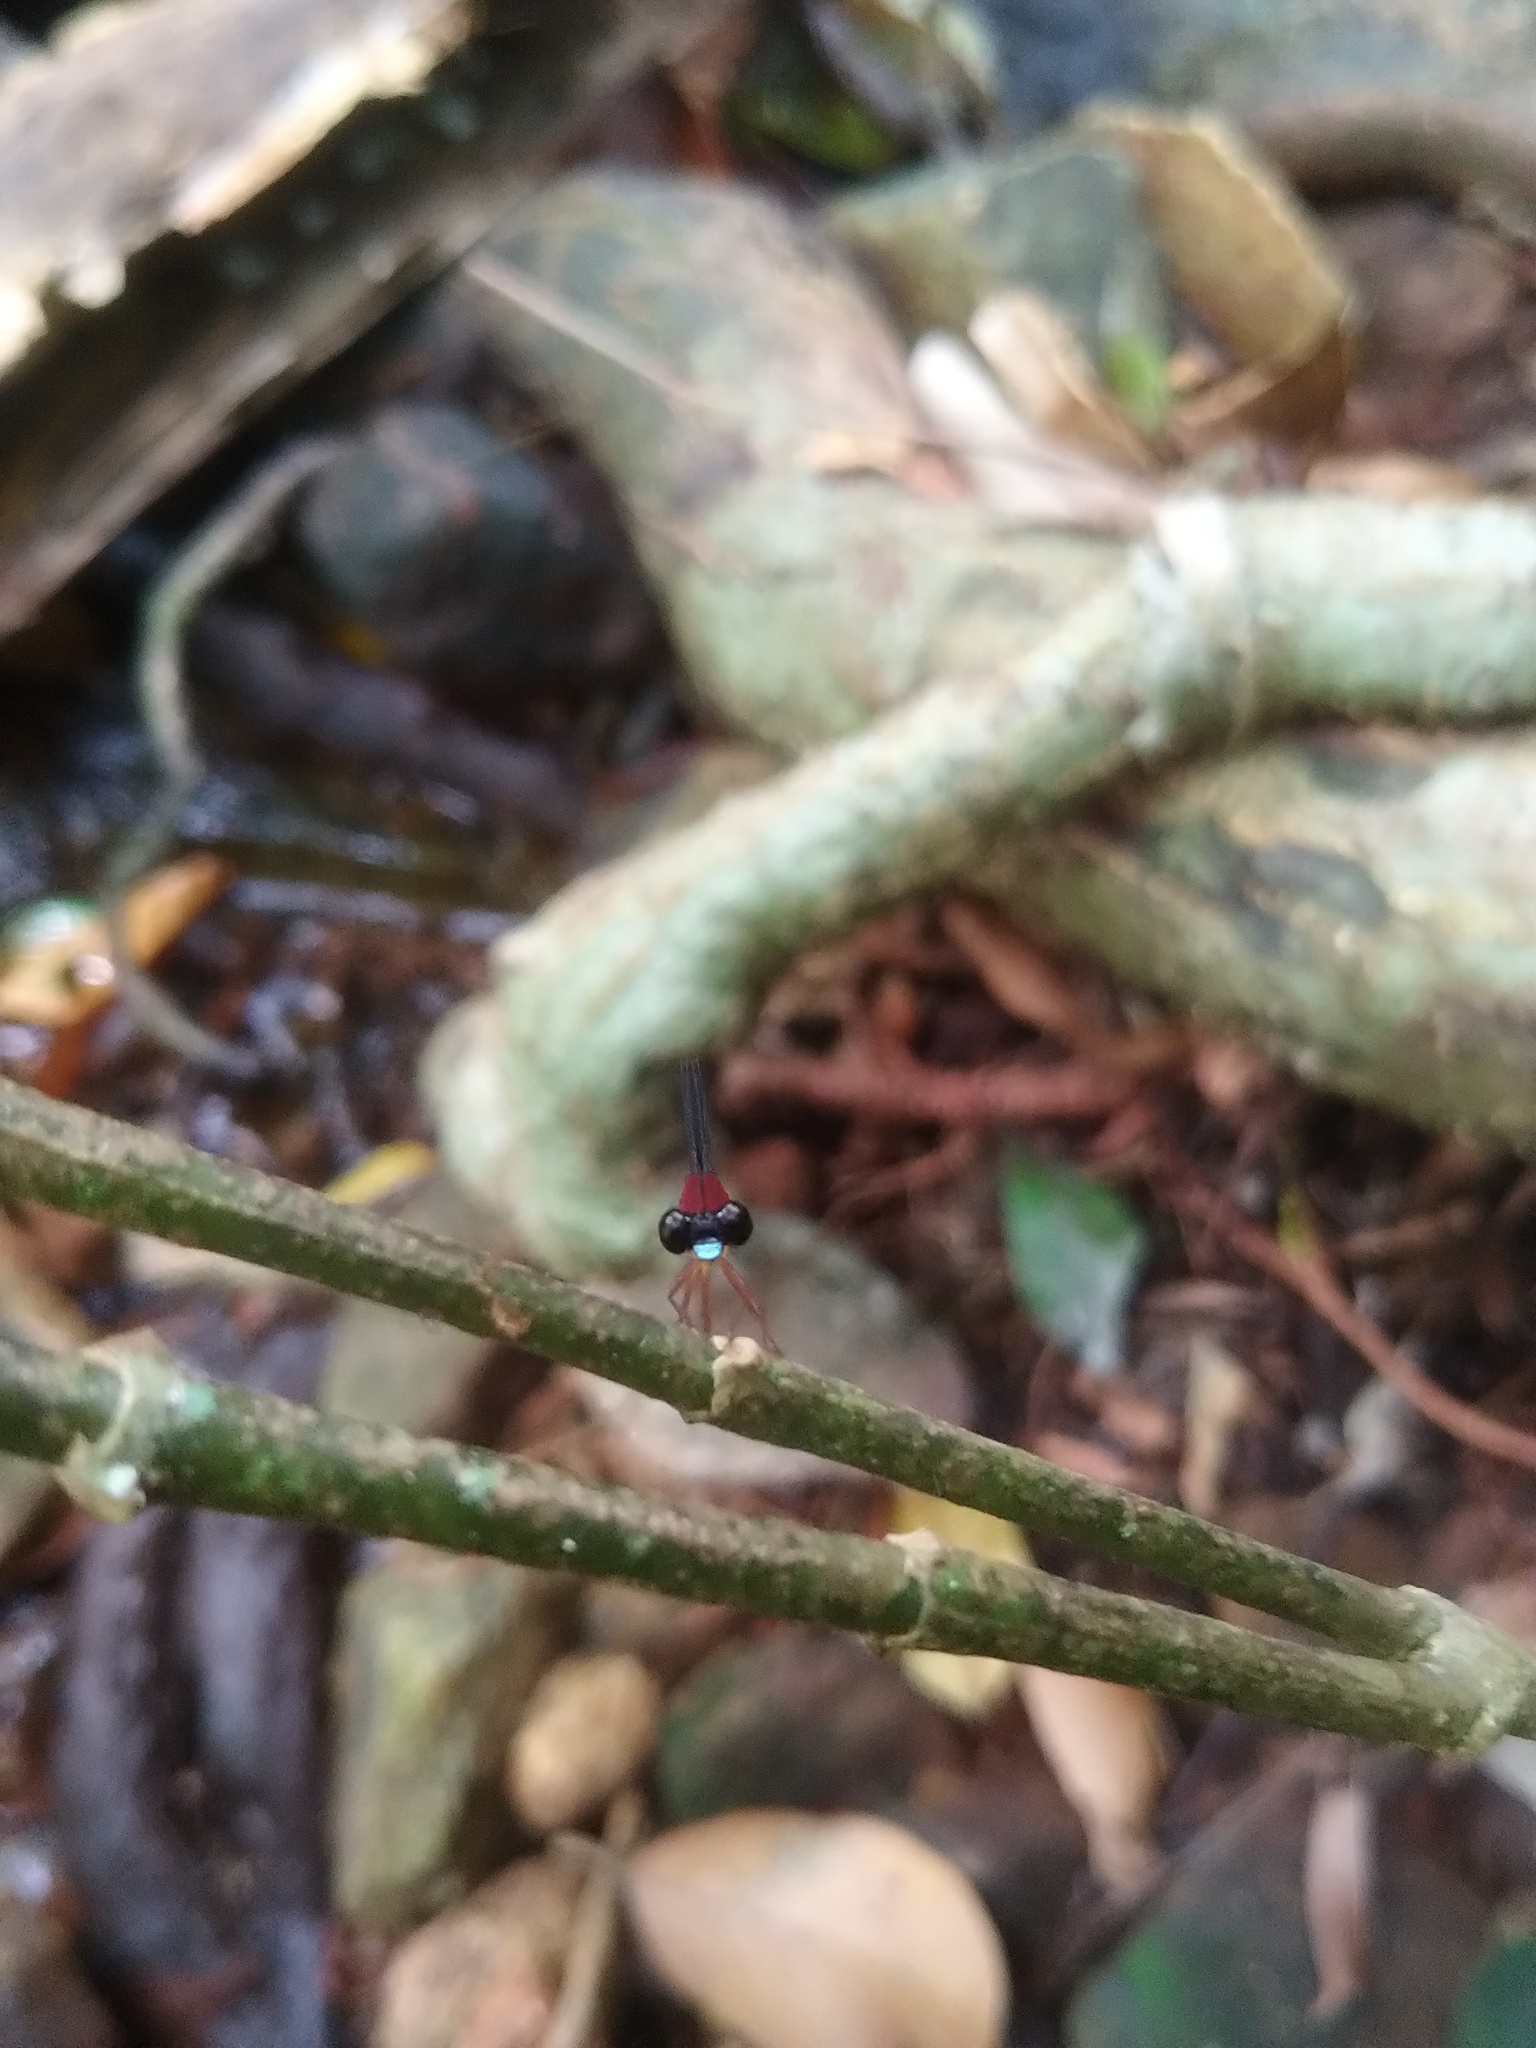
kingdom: Animalia
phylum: Arthropoda
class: Insecta
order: Odonata
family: Platystictidae
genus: Indosticta
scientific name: Indosticta deccanensis
